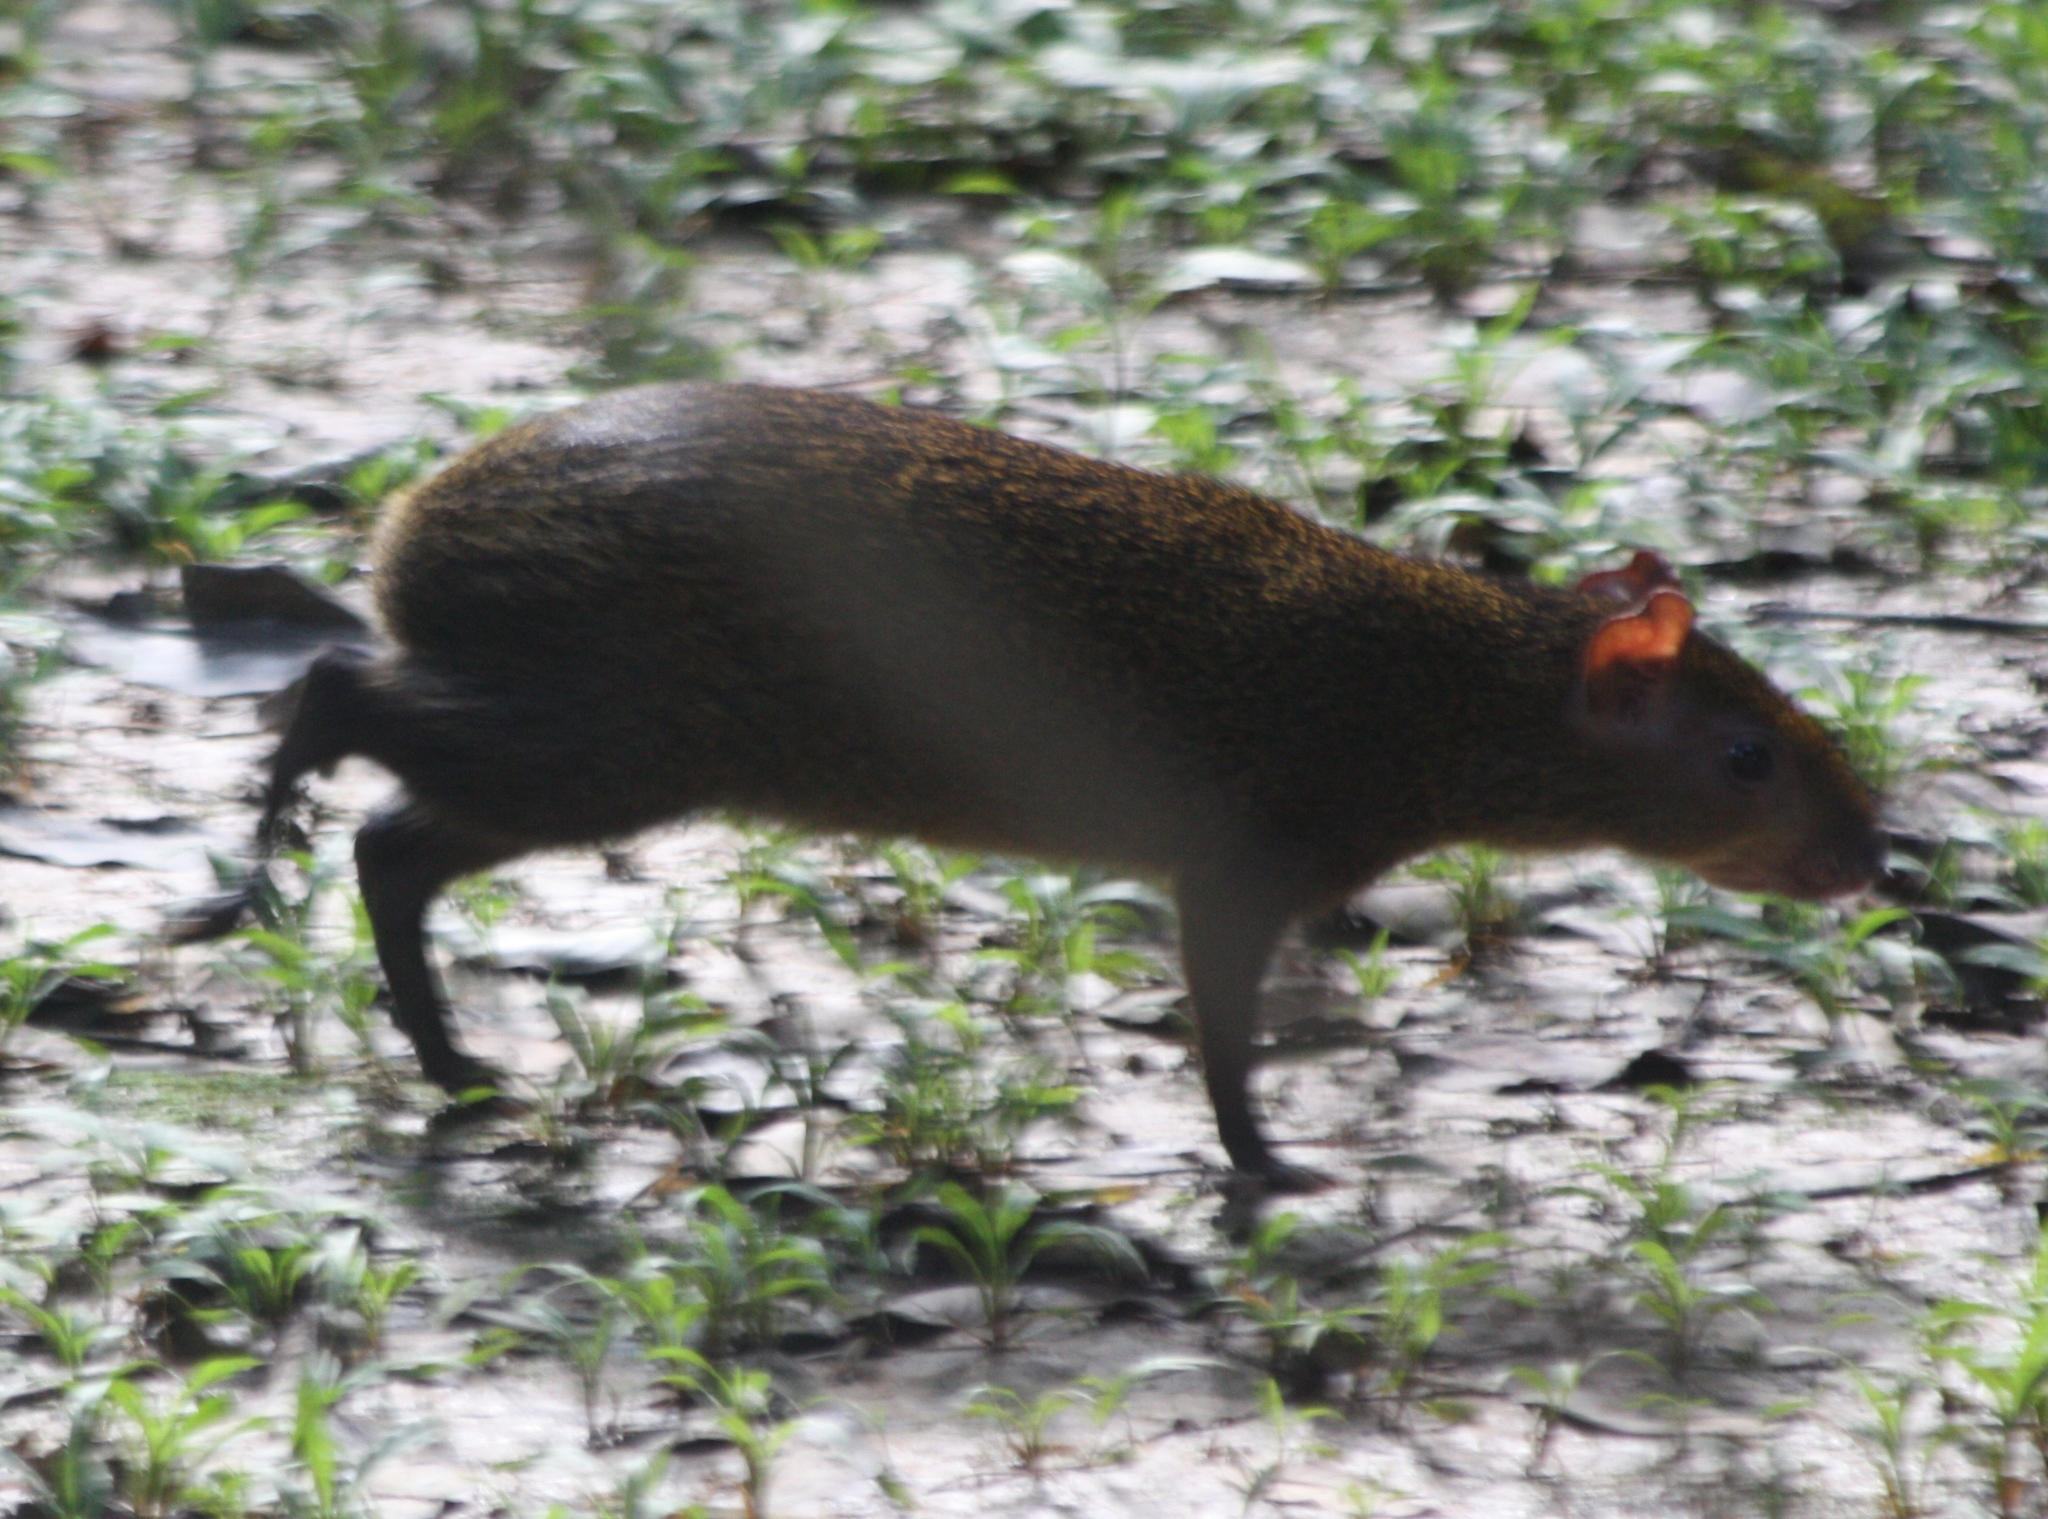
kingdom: Animalia
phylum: Chordata
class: Mammalia
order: Rodentia
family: Dasyproctidae
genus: Dasyprocta
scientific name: Dasyprocta variegata
